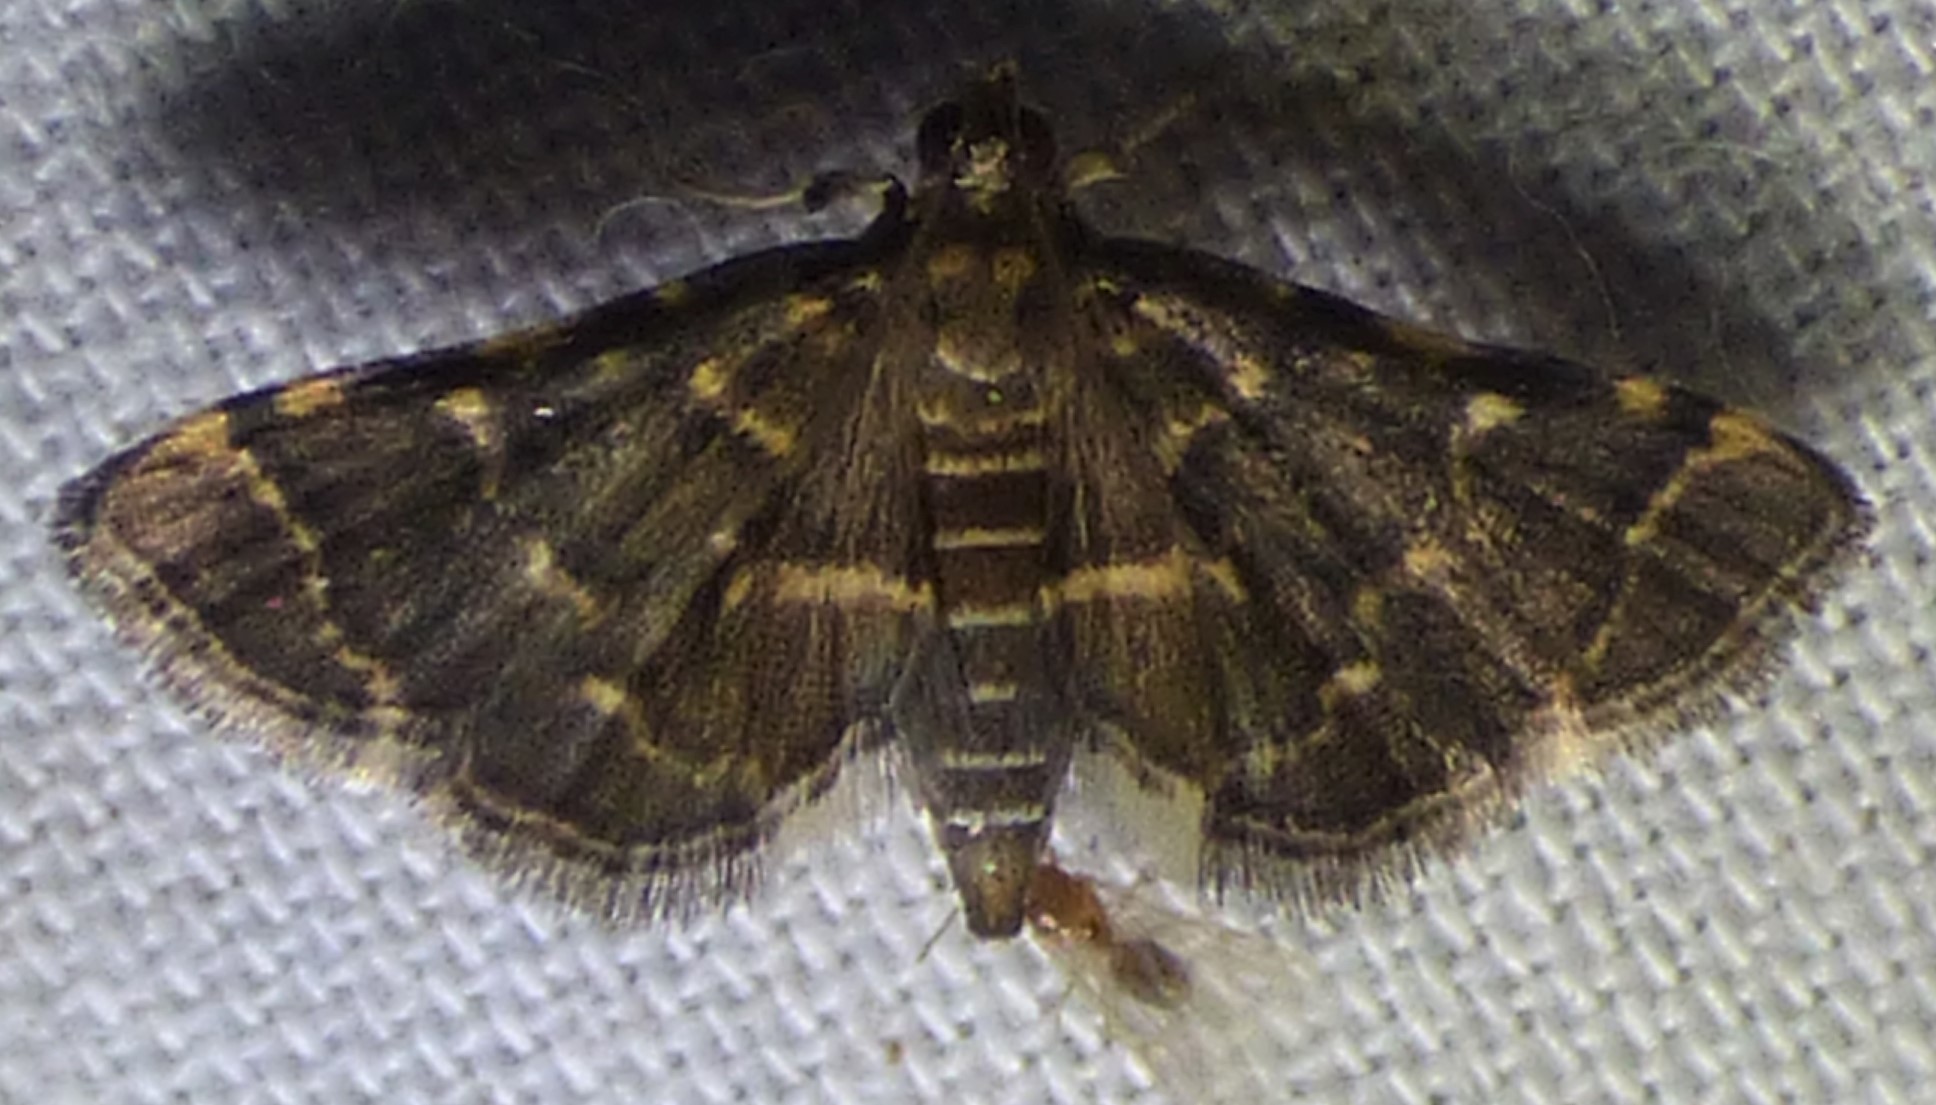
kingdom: Animalia
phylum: Arthropoda
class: Insecta
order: Lepidoptera
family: Crambidae
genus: Anageshna
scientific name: Anageshna primordialis
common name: Yellow-spotted webworm moth
